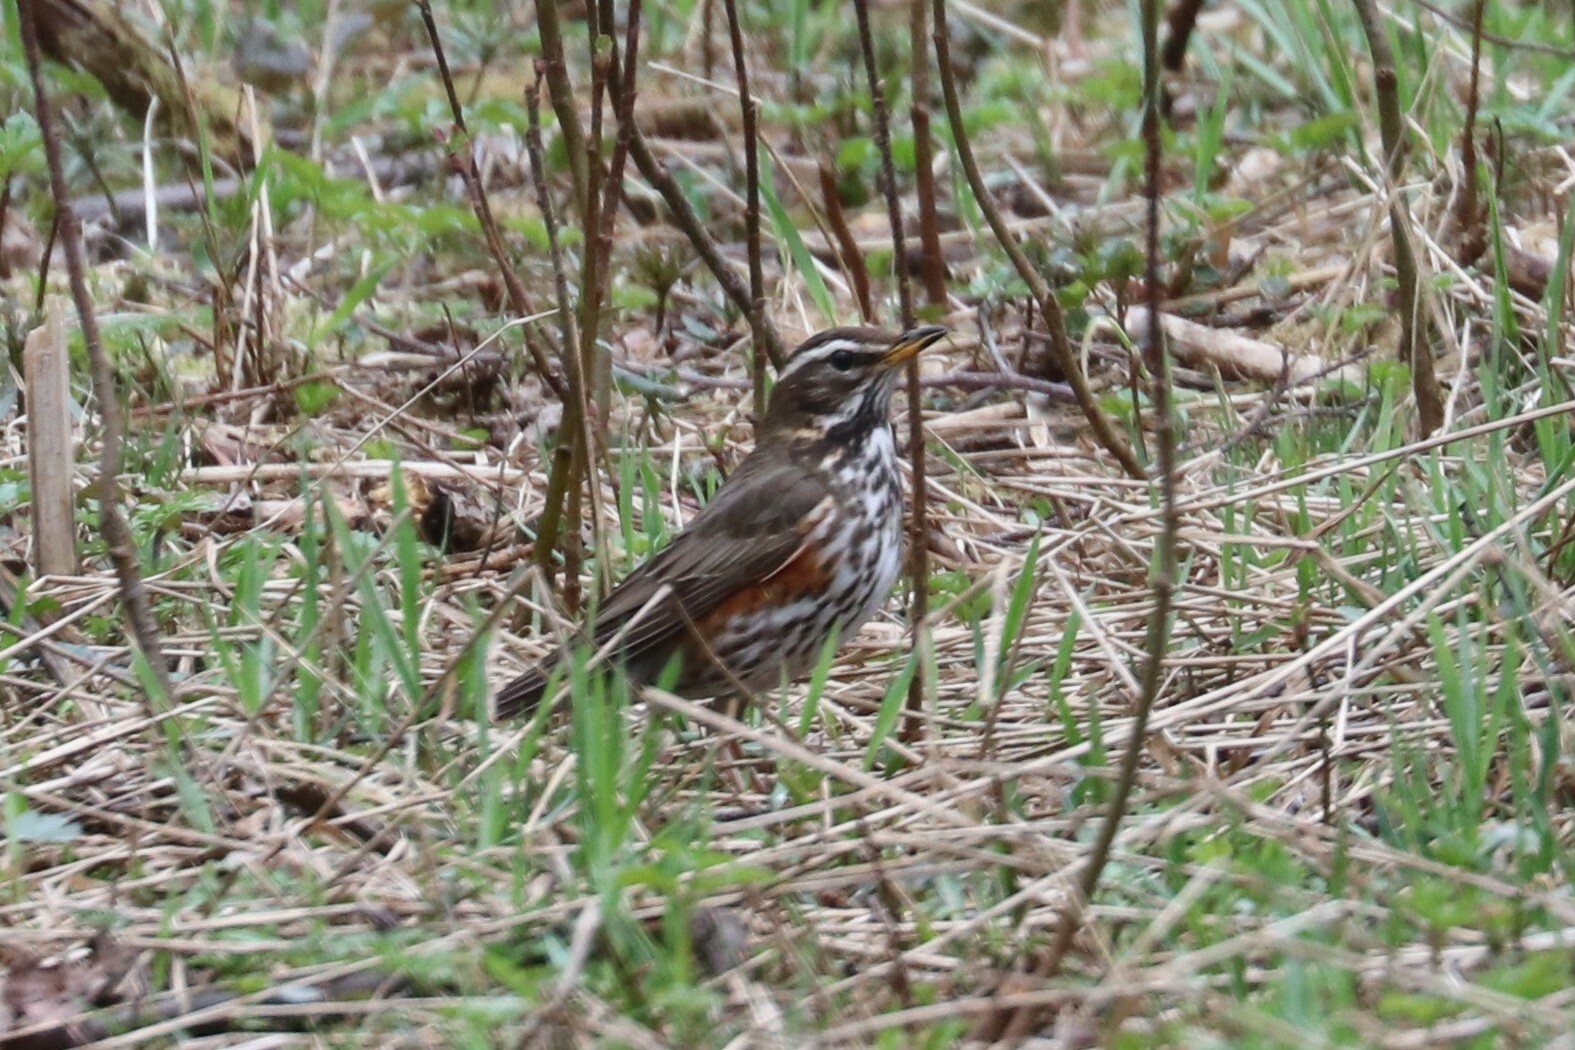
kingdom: Animalia
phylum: Chordata
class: Aves
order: Passeriformes
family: Turdidae
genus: Turdus
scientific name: Turdus iliacus
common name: Redwing
